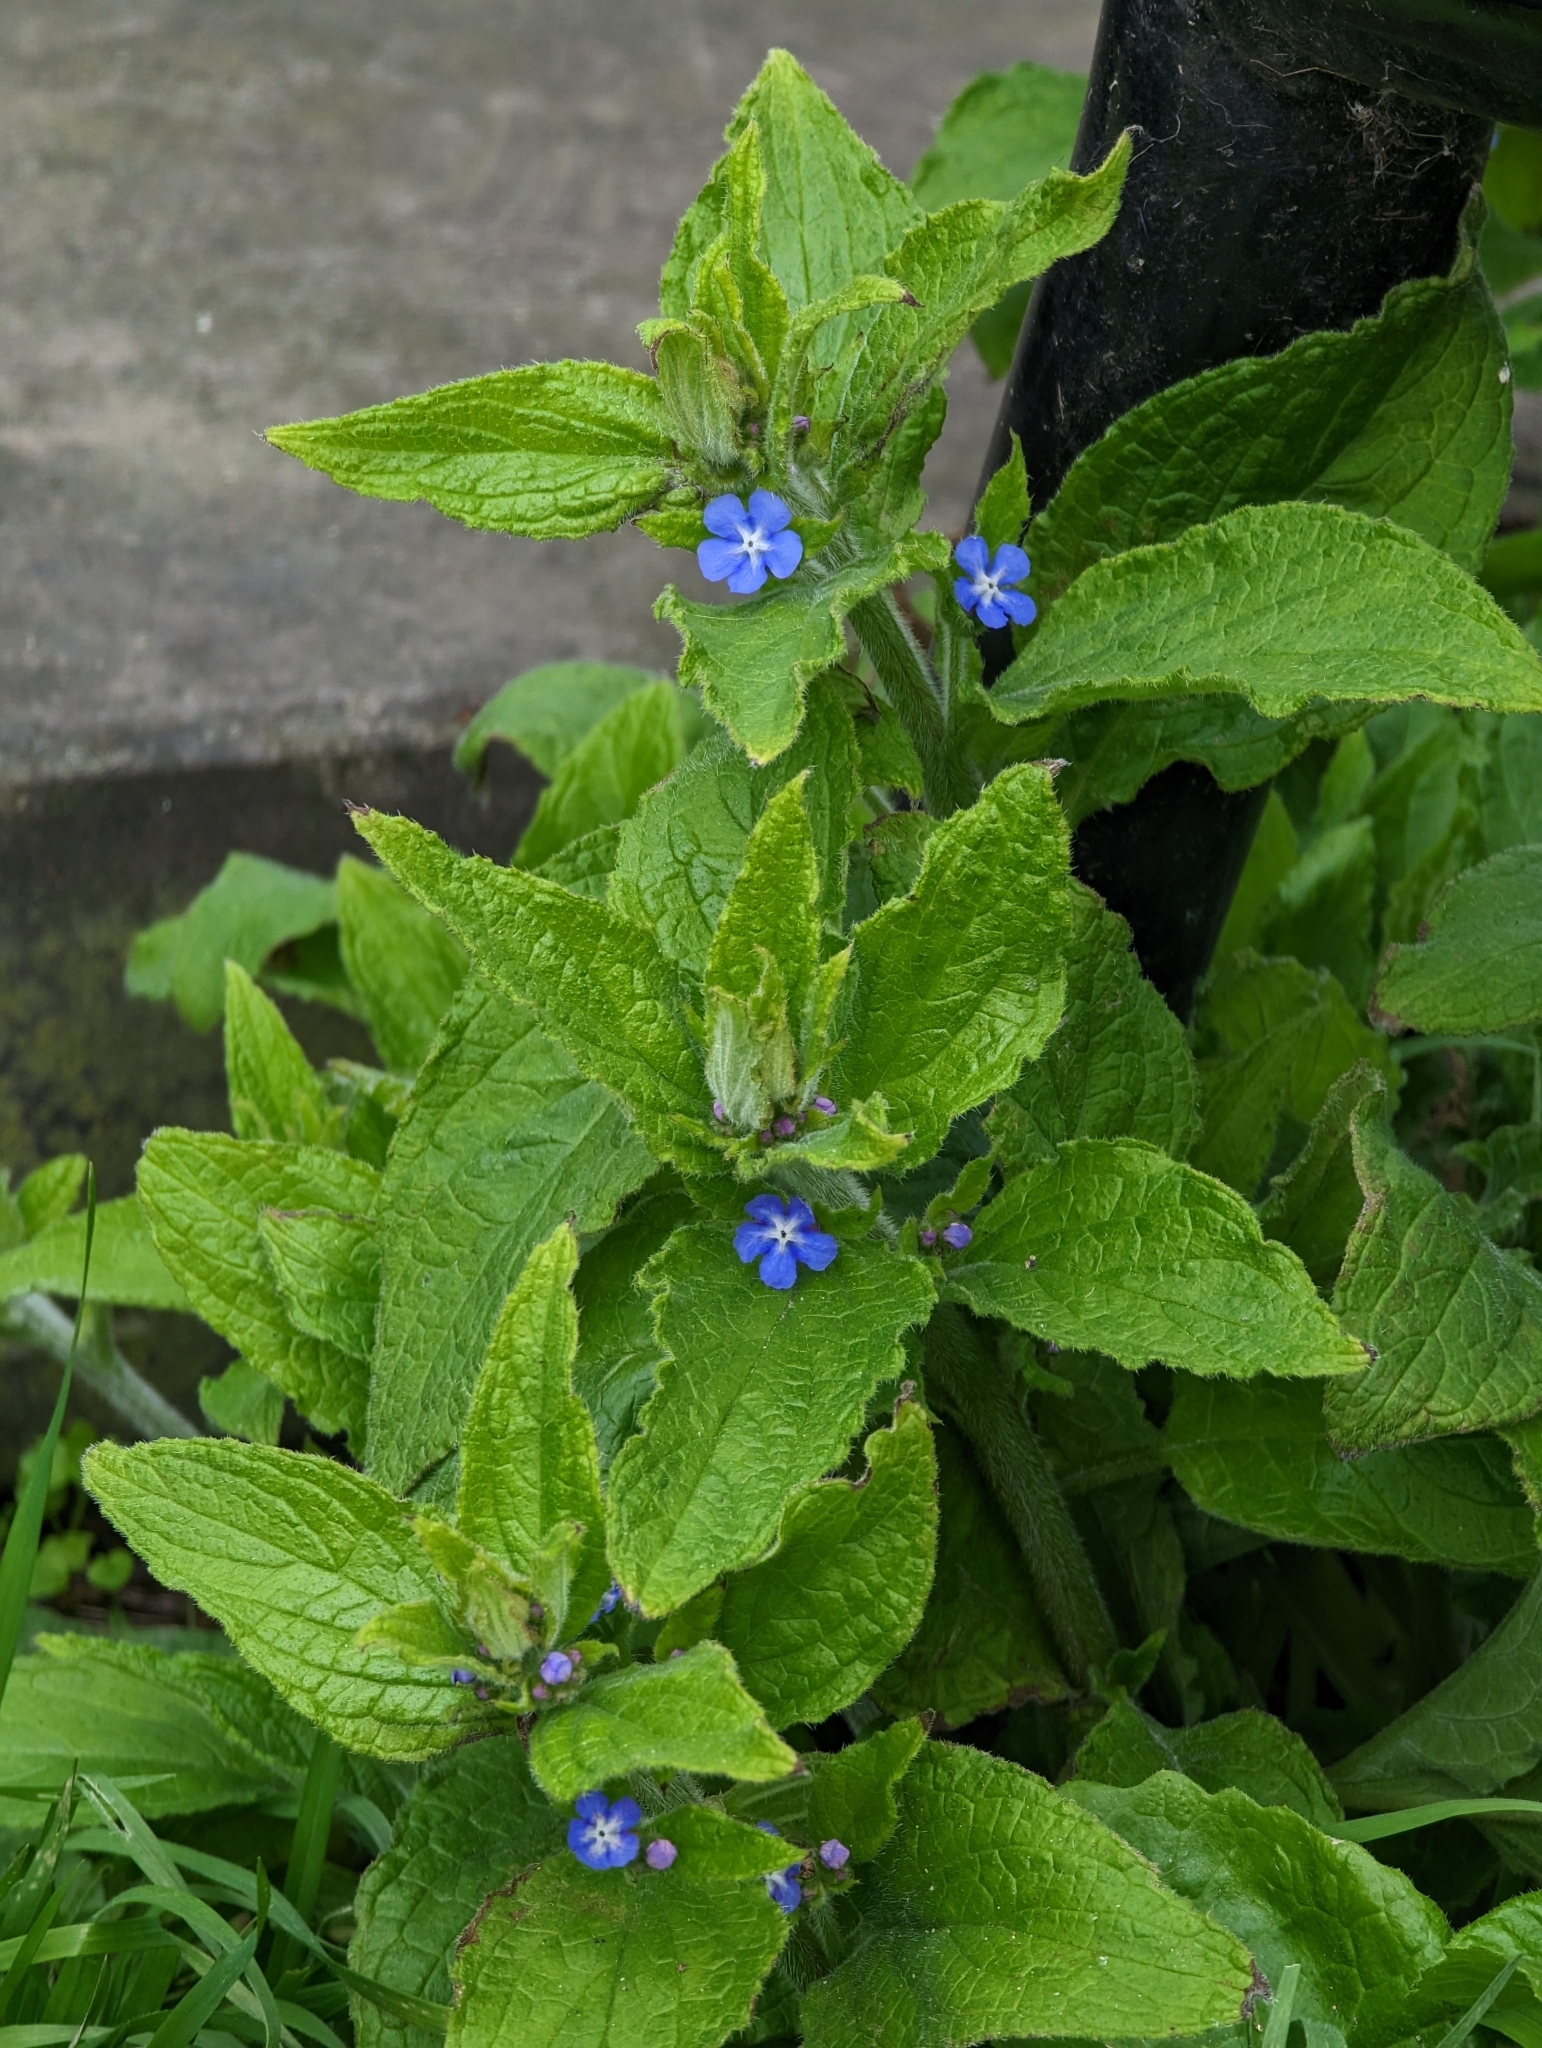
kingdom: Plantae
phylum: Tracheophyta
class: Magnoliopsida
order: Boraginales
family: Boraginaceae
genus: Pentaglottis
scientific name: Pentaglottis sempervirens
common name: Green alkanet
